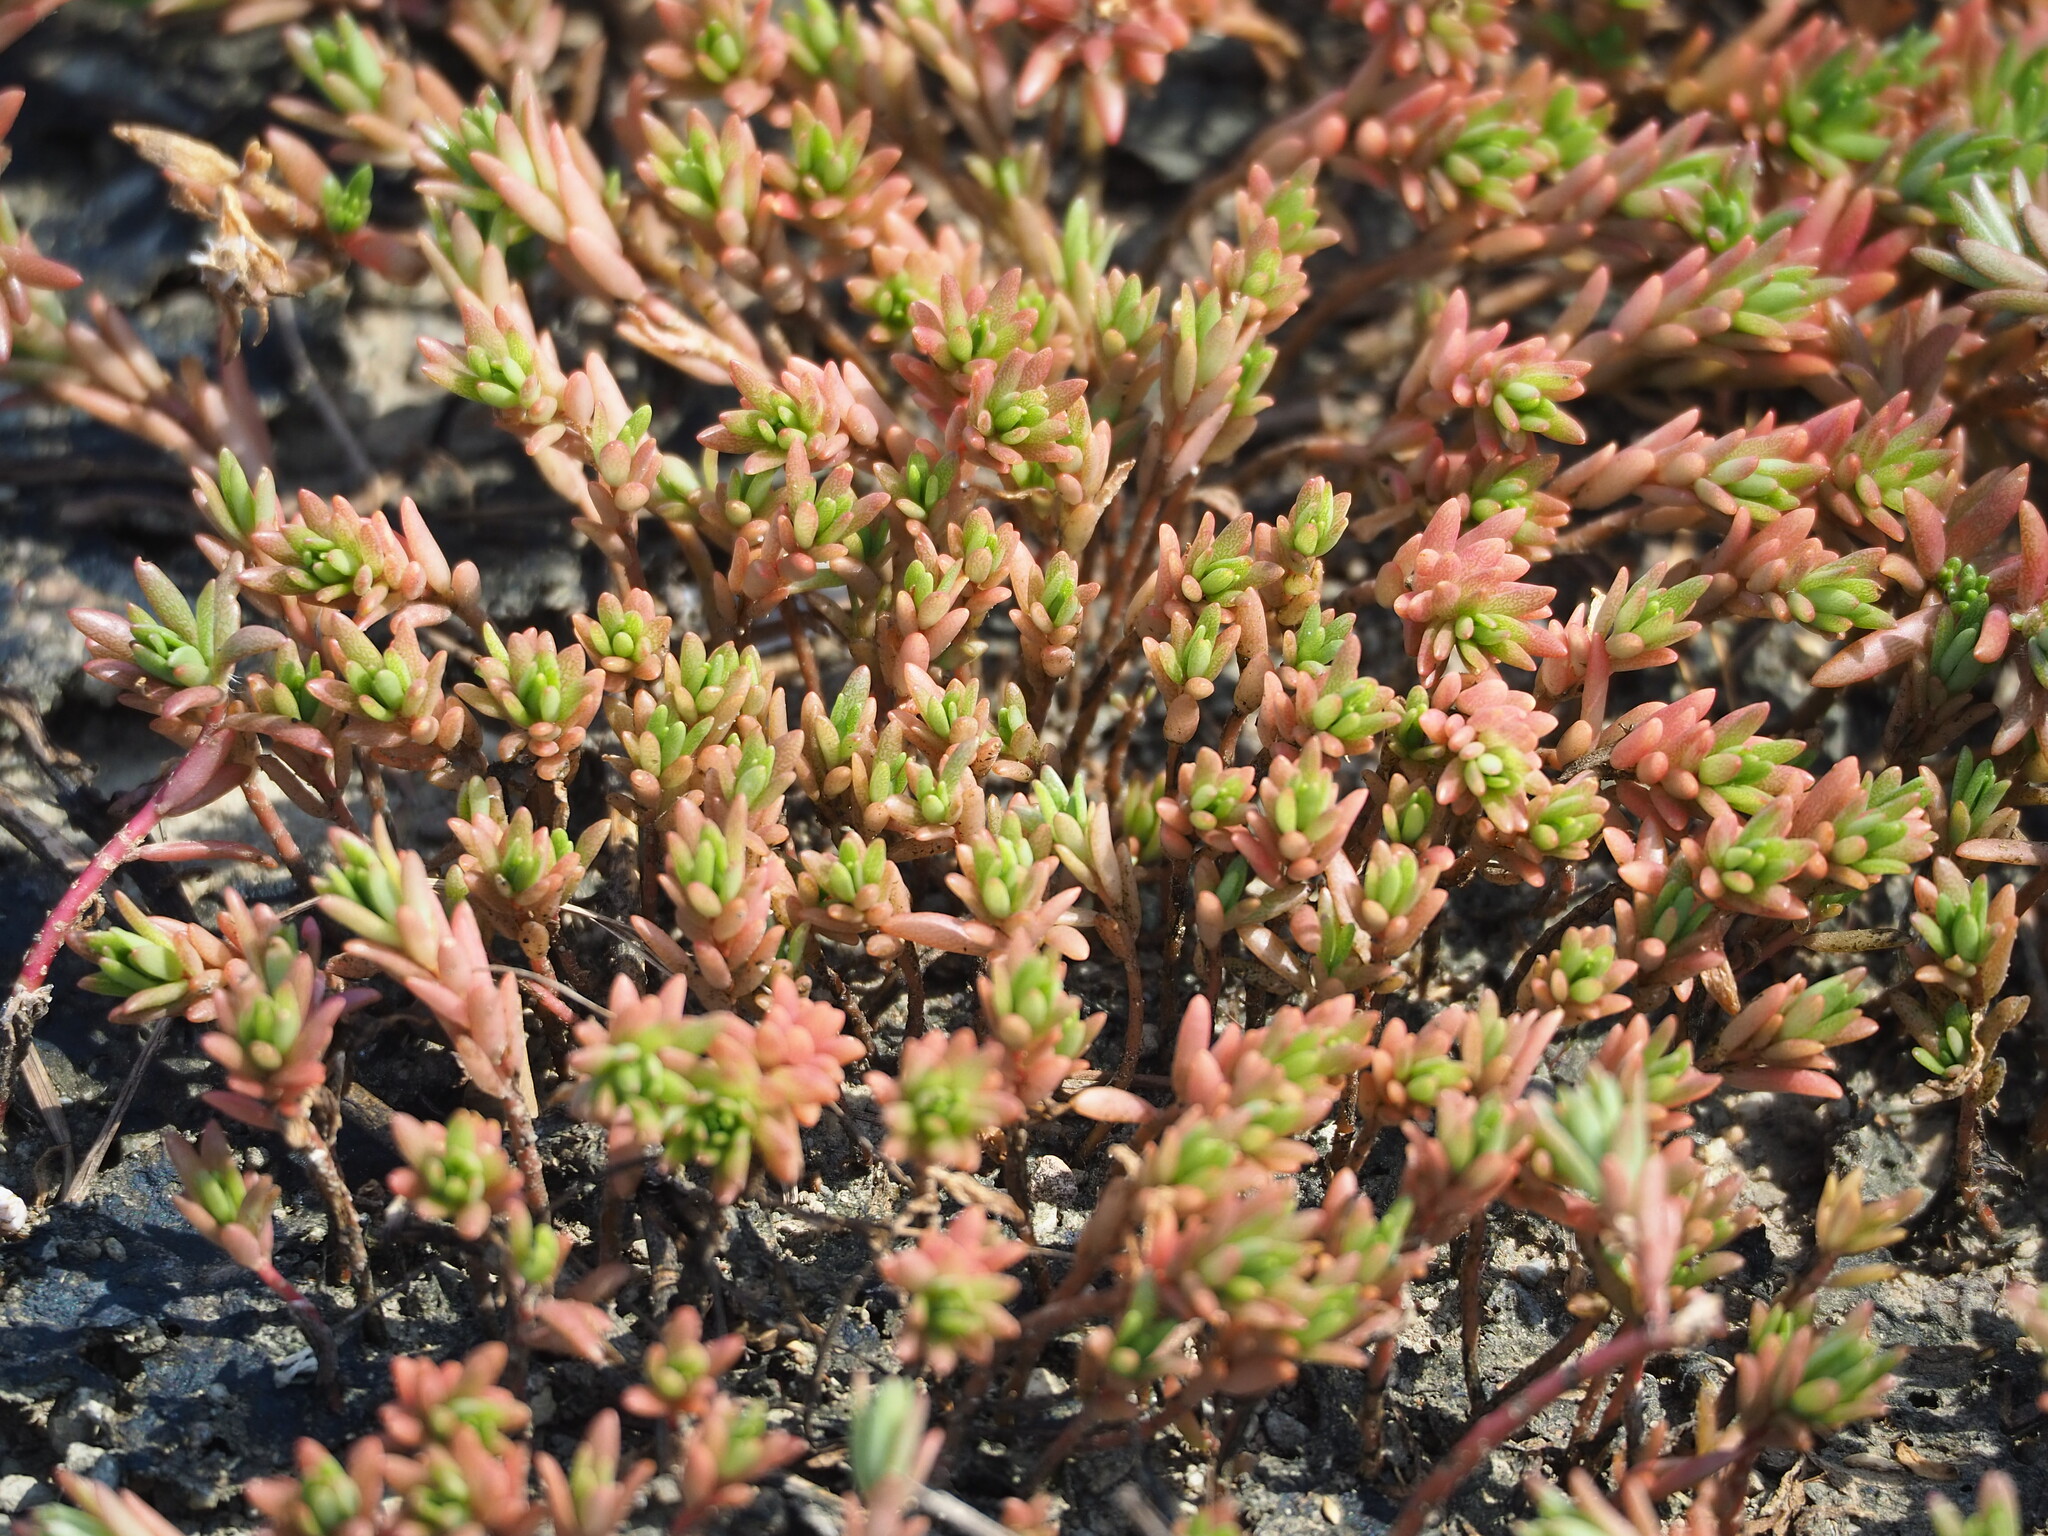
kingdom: Plantae
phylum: Tracheophyta
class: Magnoliopsida
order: Caryophyllales
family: Portulacaceae
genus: Portulaca
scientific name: Portulaca pilosa
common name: Kiss me quick
